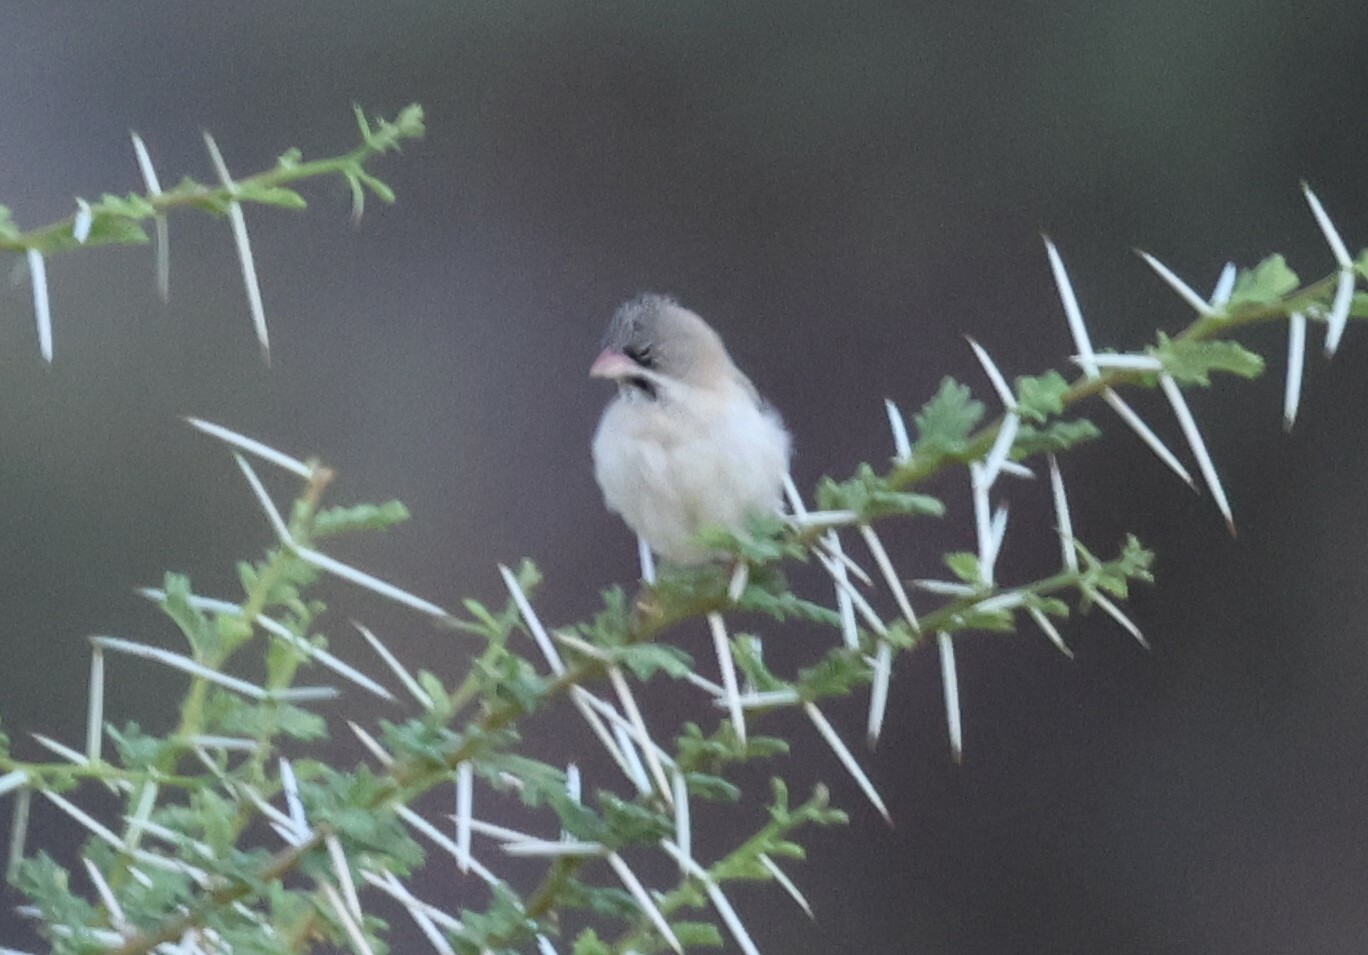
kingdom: Animalia
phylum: Chordata
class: Aves
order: Passeriformes
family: Ploceidae
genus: Sporopipes
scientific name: Sporopipes squamifrons
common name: Scaly-feathered weaver
